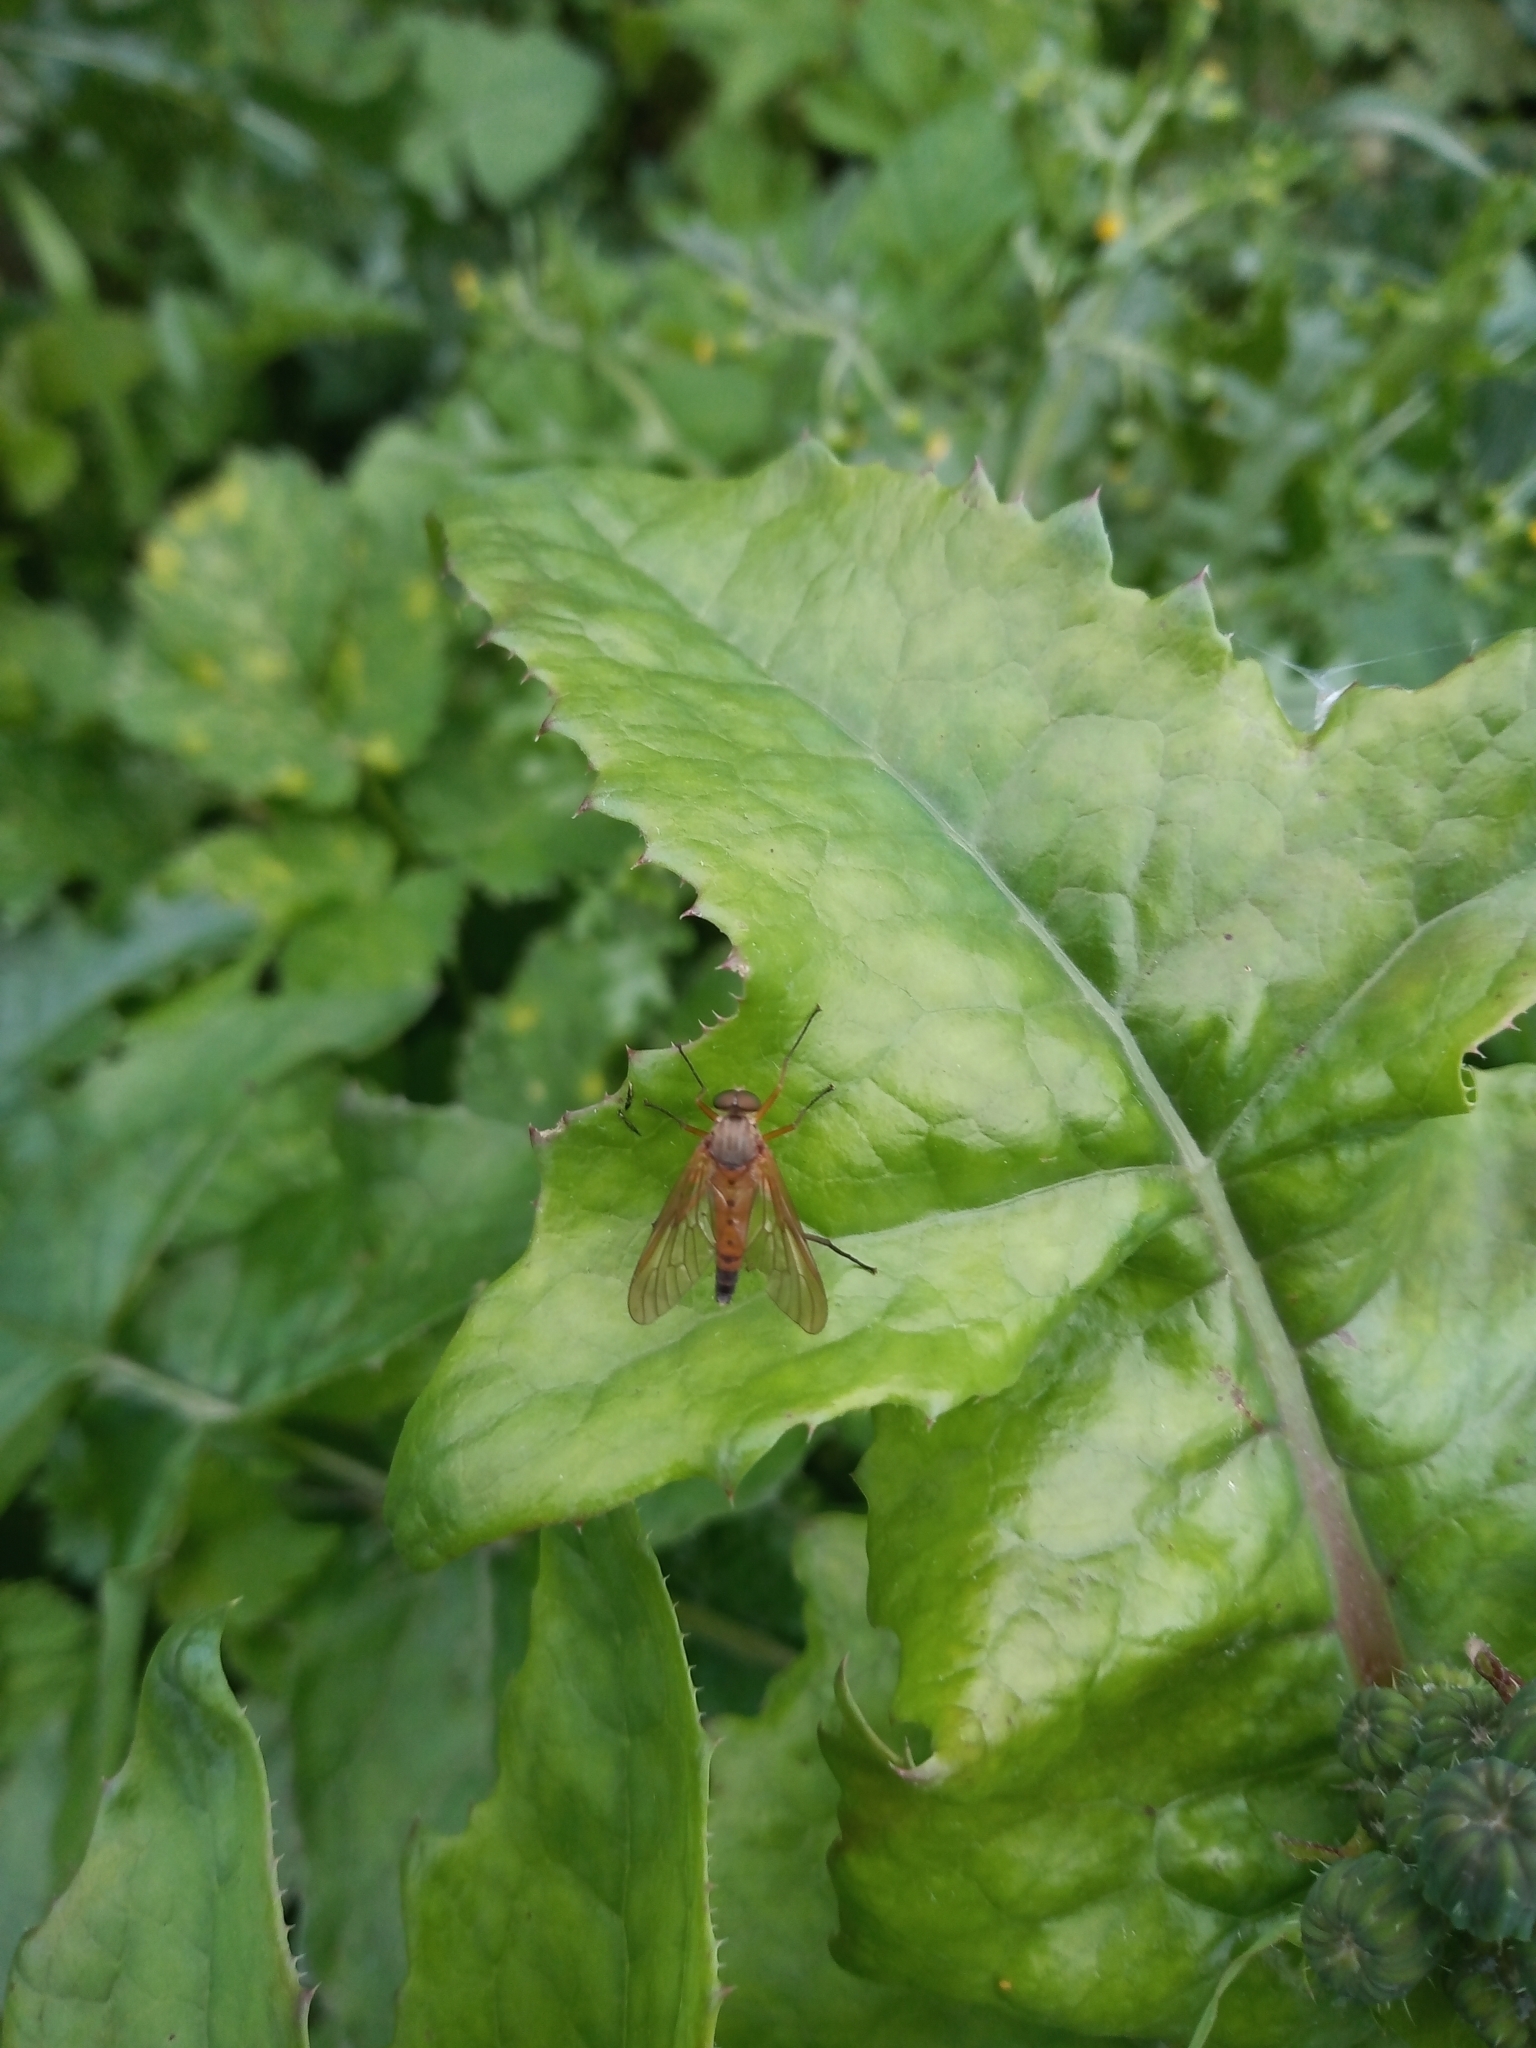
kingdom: Animalia
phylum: Arthropoda
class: Insecta
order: Diptera
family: Rhagionidae
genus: Rhagio
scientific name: Rhagio tringaria
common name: Marsh snipefly
